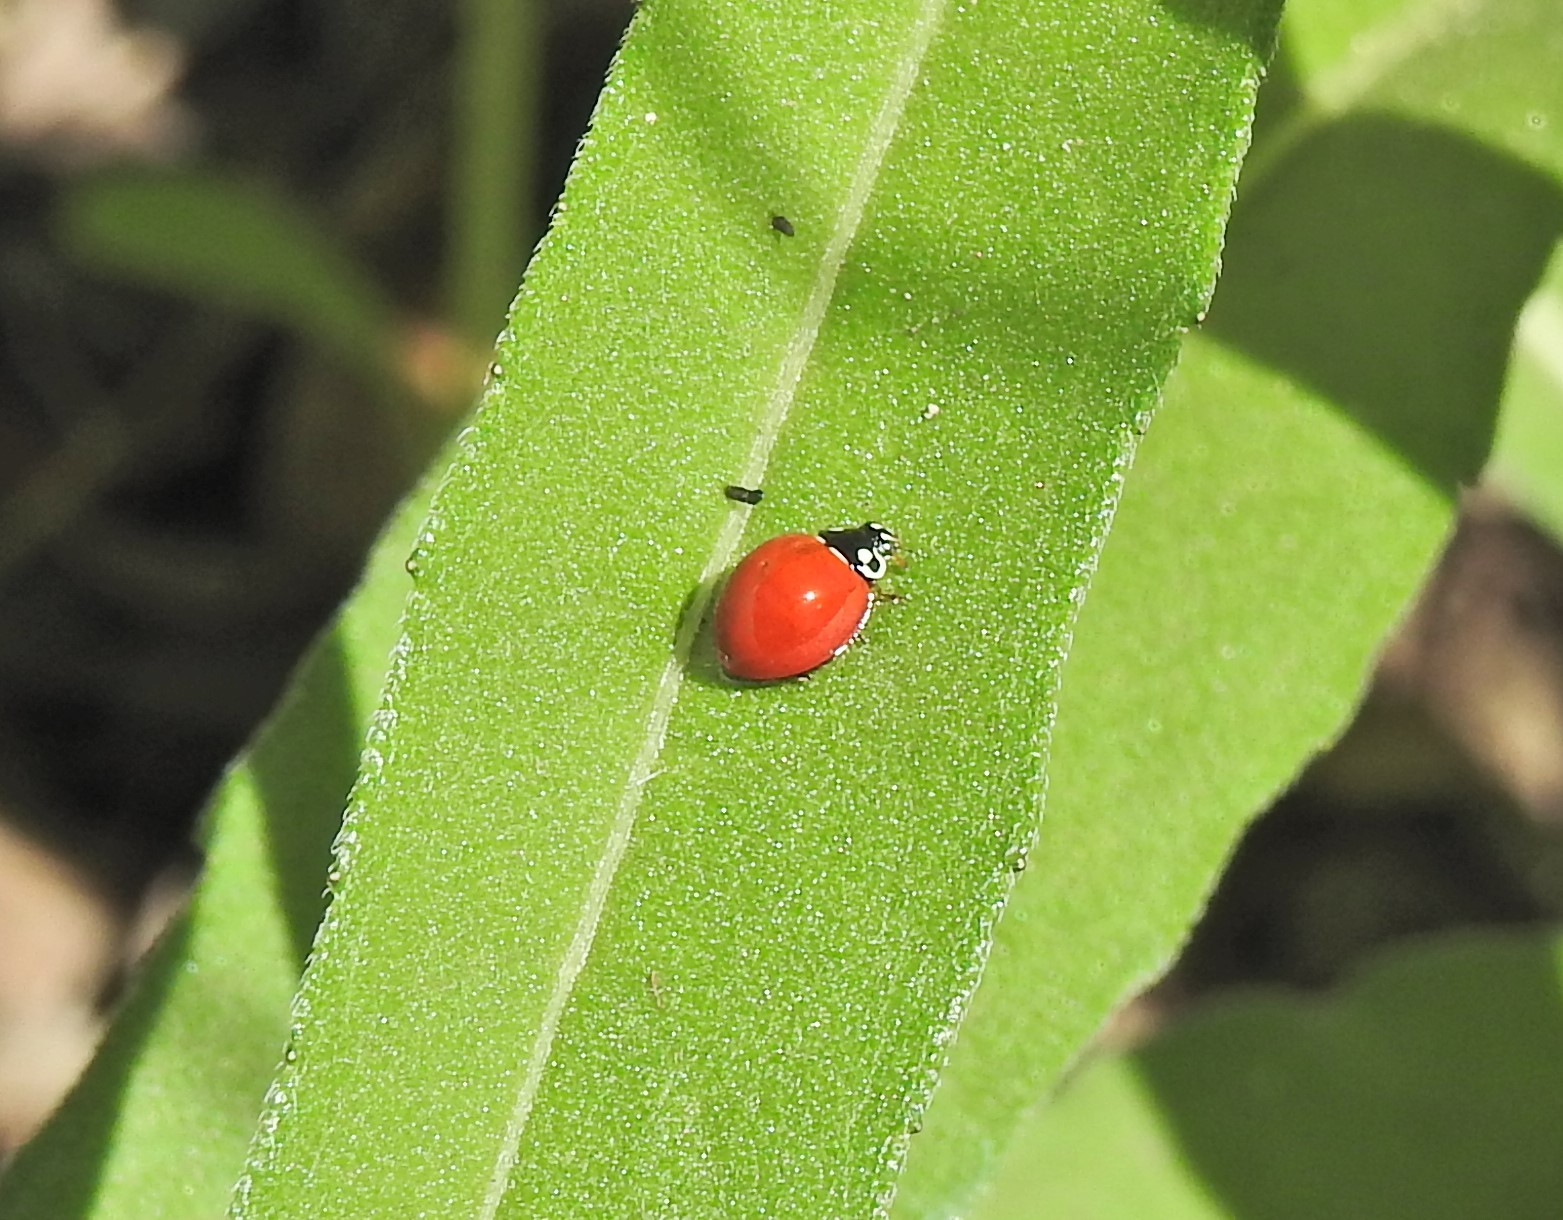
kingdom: Animalia
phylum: Arthropoda
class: Insecta
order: Coleoptera
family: Coccinellidae
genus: Cycloneda
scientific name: Cycloneda sanguinea
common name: Ladybird beetle
